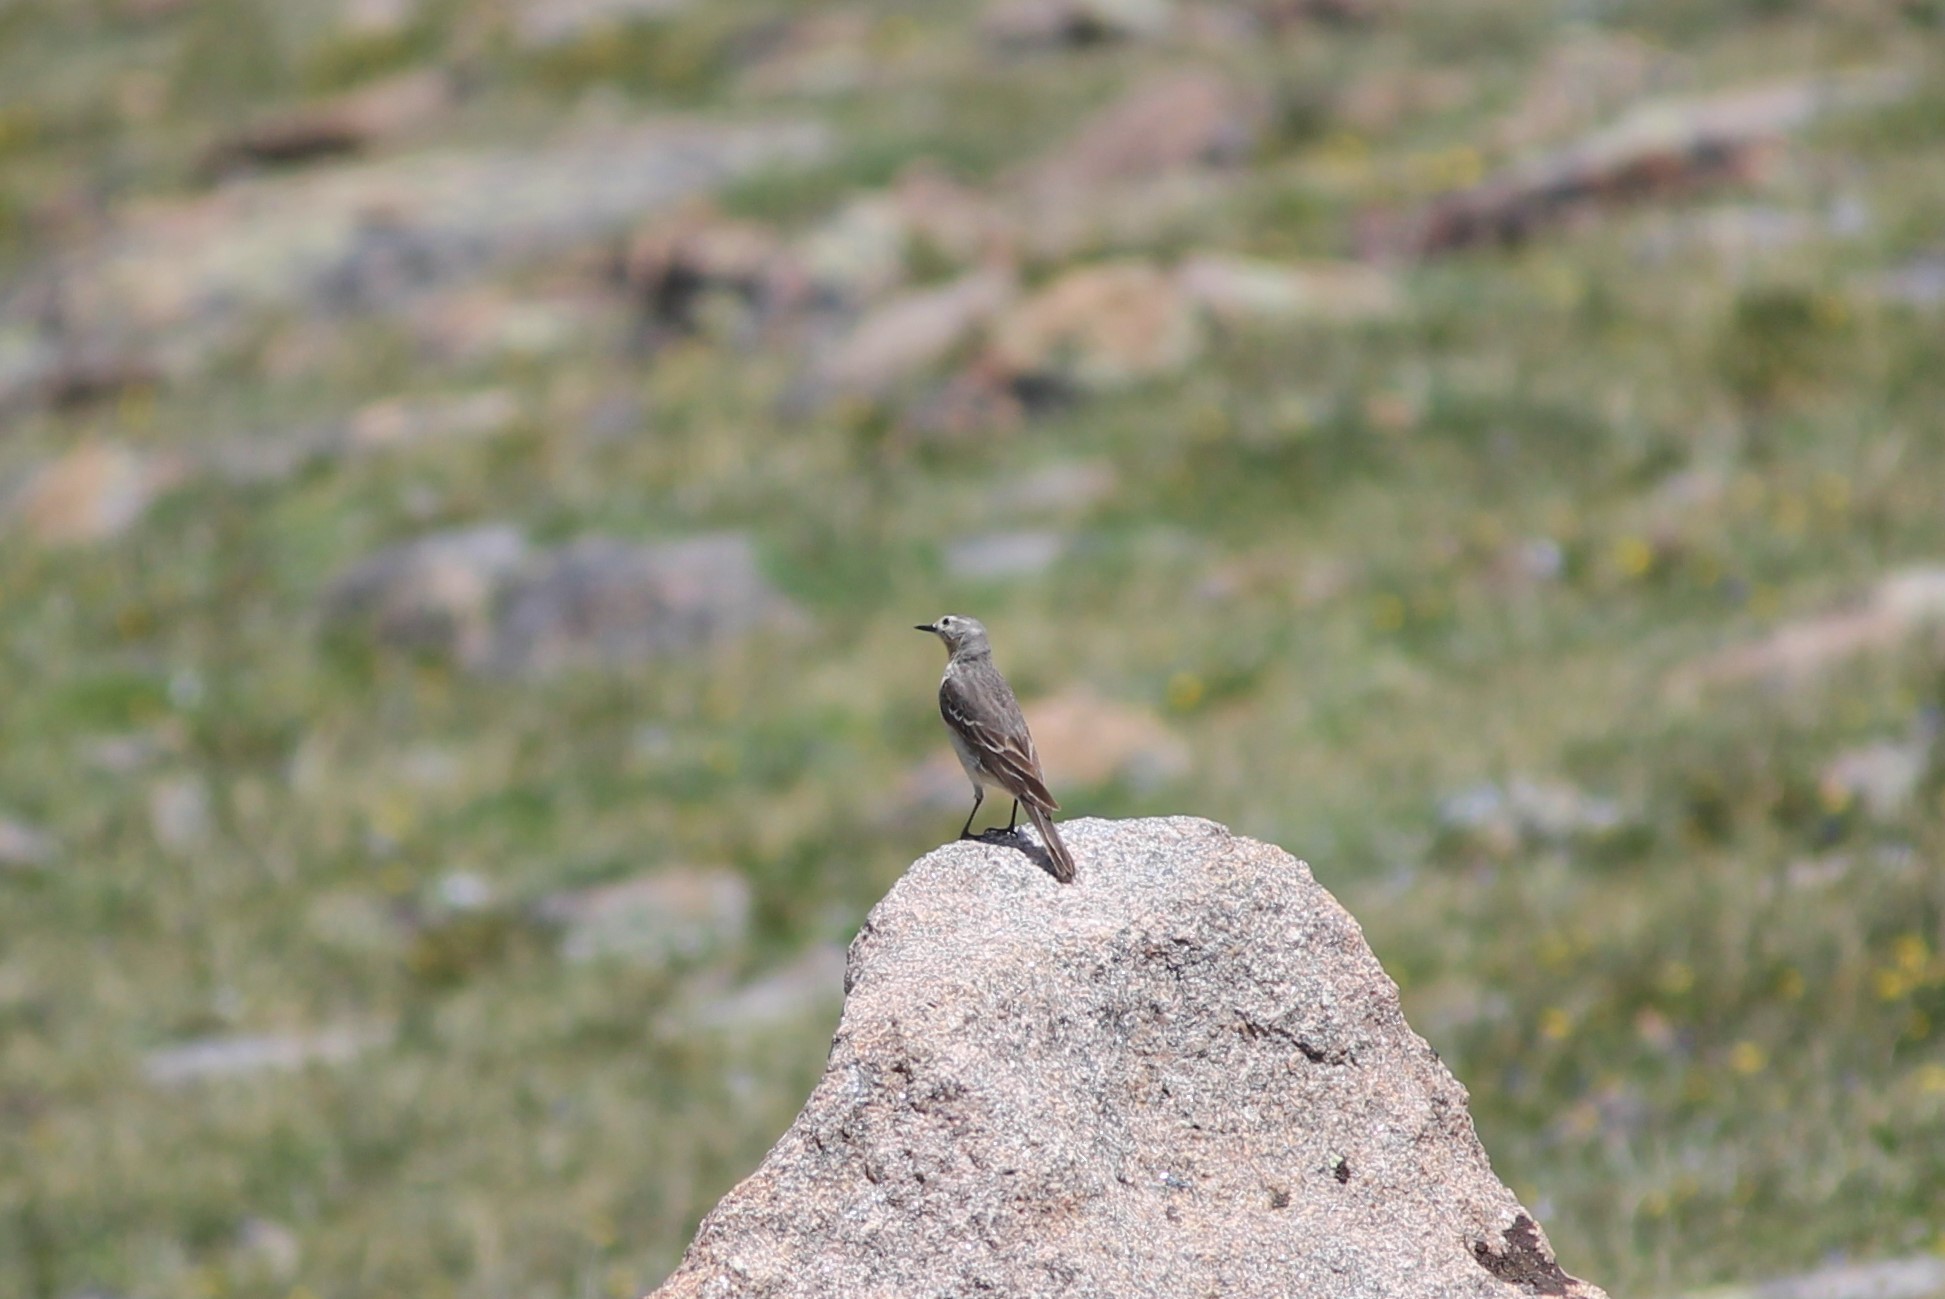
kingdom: Animalia
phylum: Chordata
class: Aves
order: Passeriformes
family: Motacillidae
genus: Anthus
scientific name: Anthus rubescens
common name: Buff-bellied pipit
